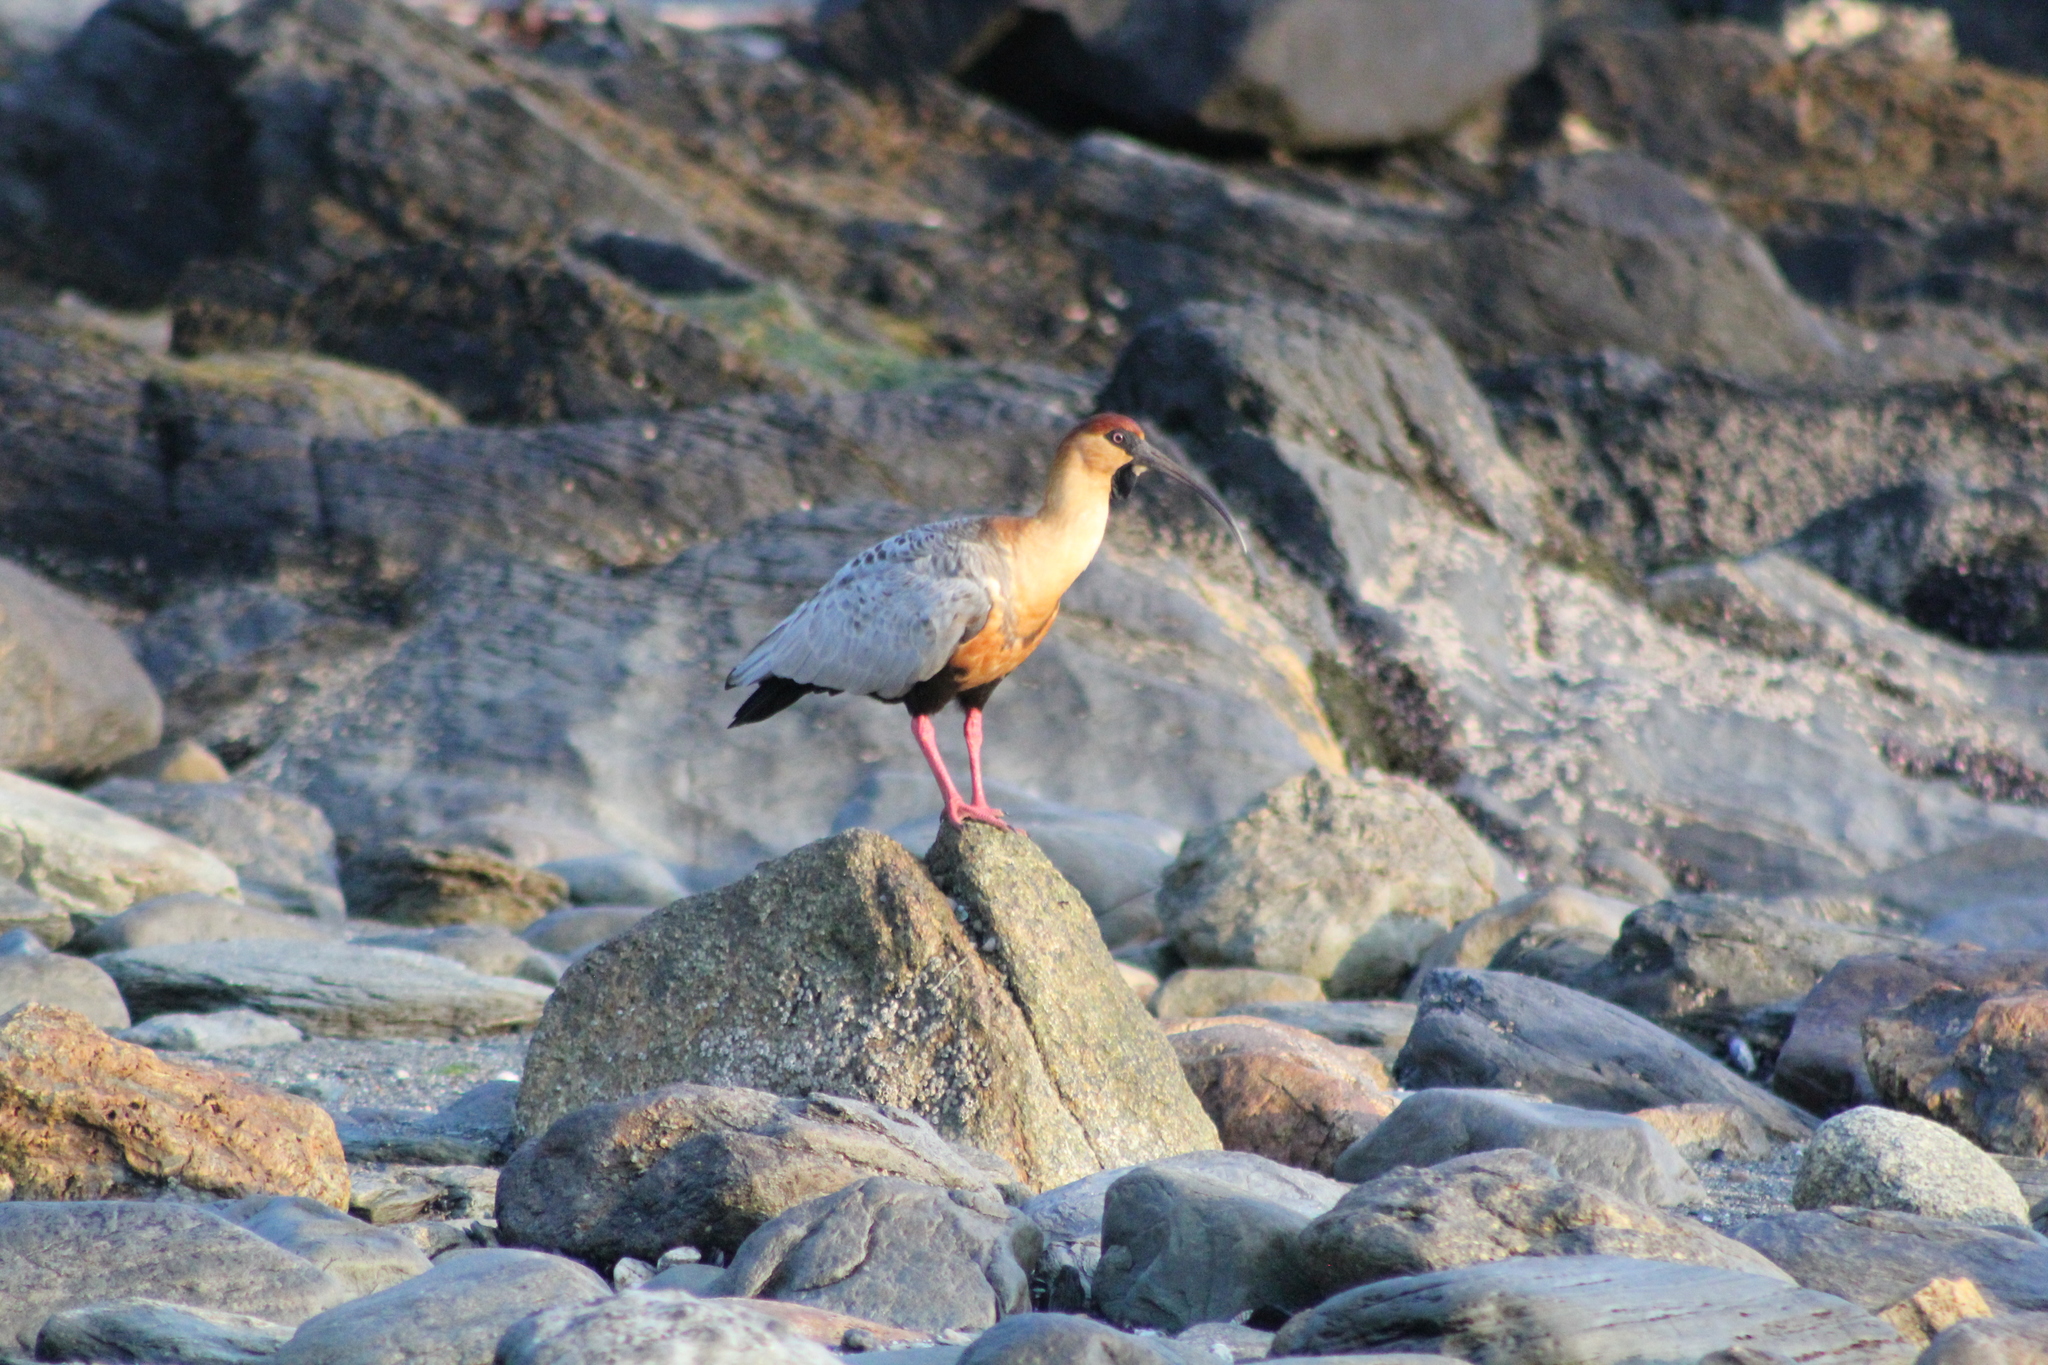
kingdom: Animalia
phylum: Chordata
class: Aves
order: Pelecaniformes
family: Threskiornithidae
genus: Theristicus
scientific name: Theristicus melanopis
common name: Black-faced ibis
